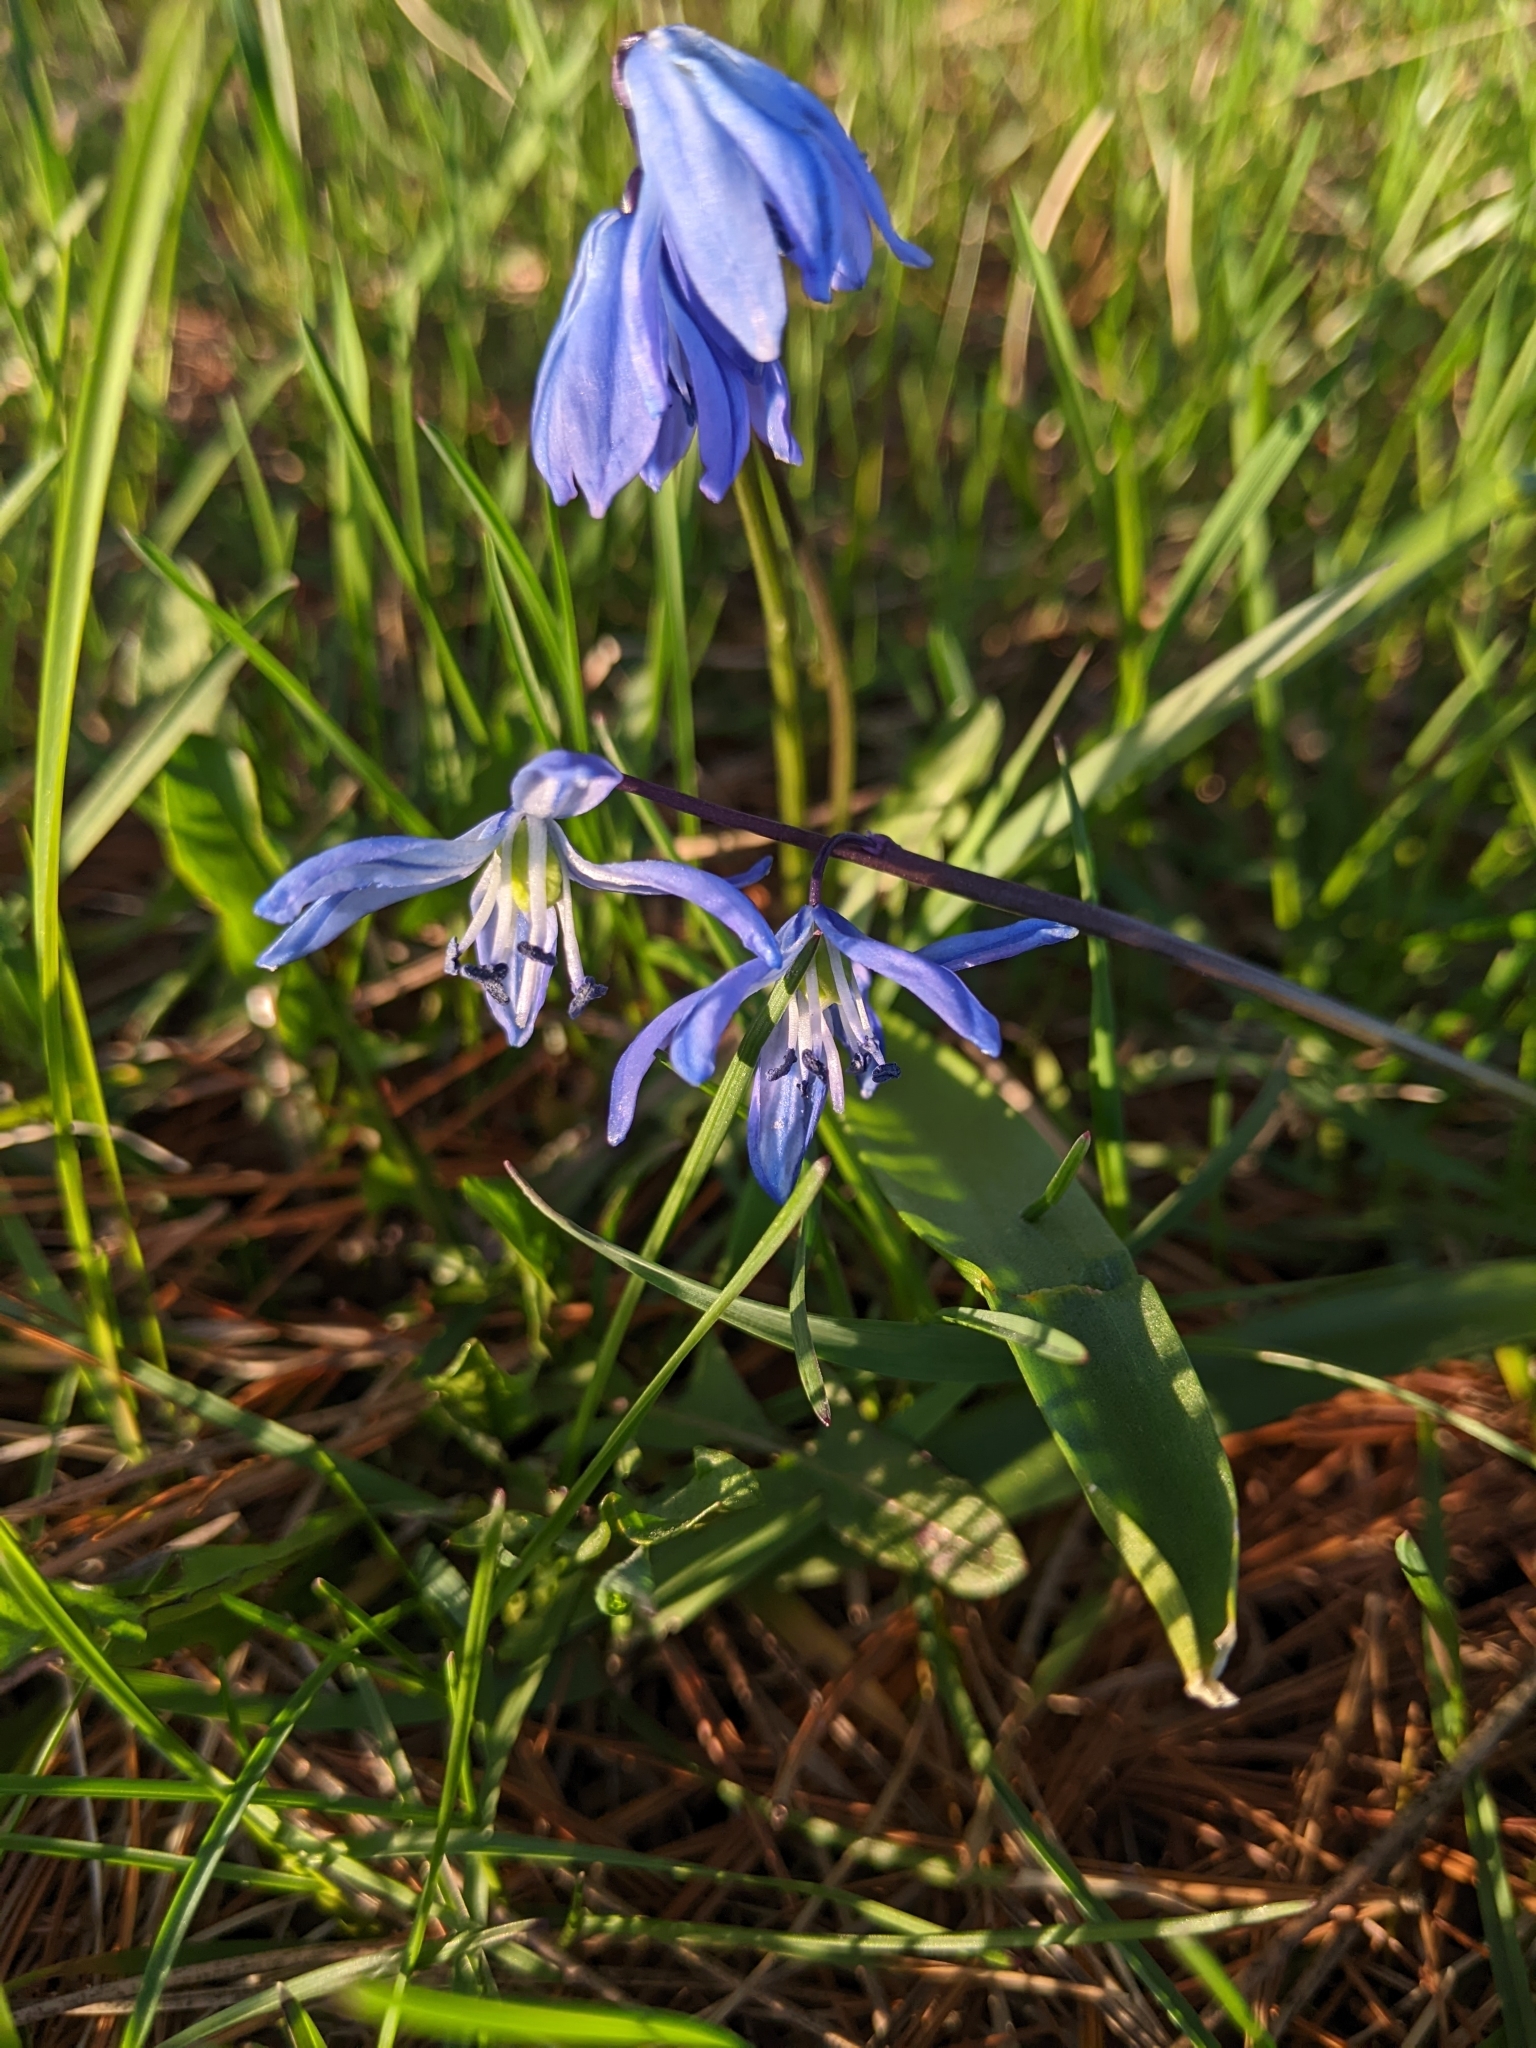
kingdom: Plantae
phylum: Tracheophyta
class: Liliopsida
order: Asparagales
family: Asparagaceae
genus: Scilla
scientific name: Scilla siberica
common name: Siberian squill
